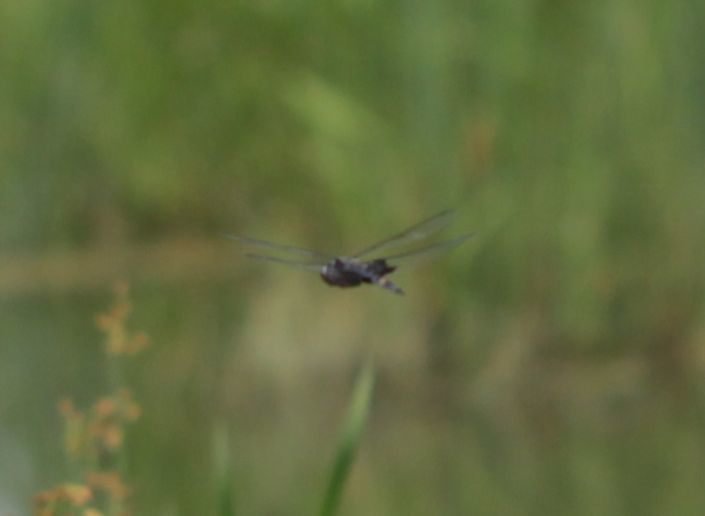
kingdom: Animalia
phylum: Arthropoda
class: Insecta
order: Odonata
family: Libellulidae
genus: Tramea
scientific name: Tramea lacerata
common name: Black saddlebags
